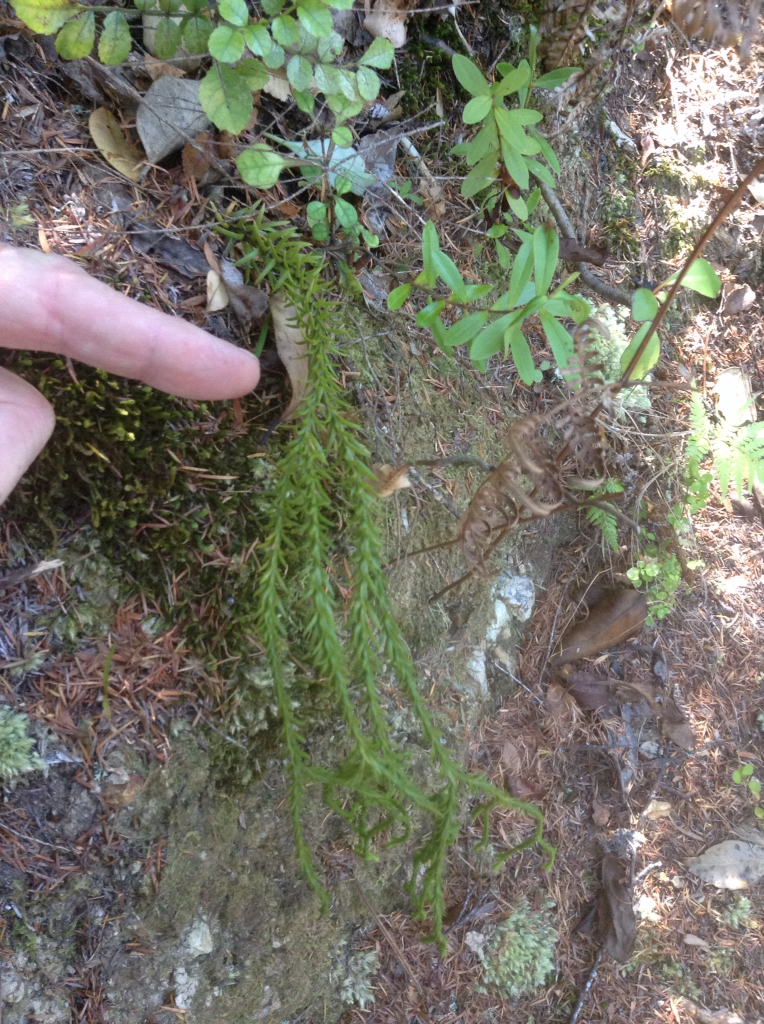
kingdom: Plantae
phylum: Tracheophyta
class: Lycopodiopsida
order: Lycopodiales
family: Lycopodiaceae
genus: Phlegmariurus
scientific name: Phlegmariurus varius
